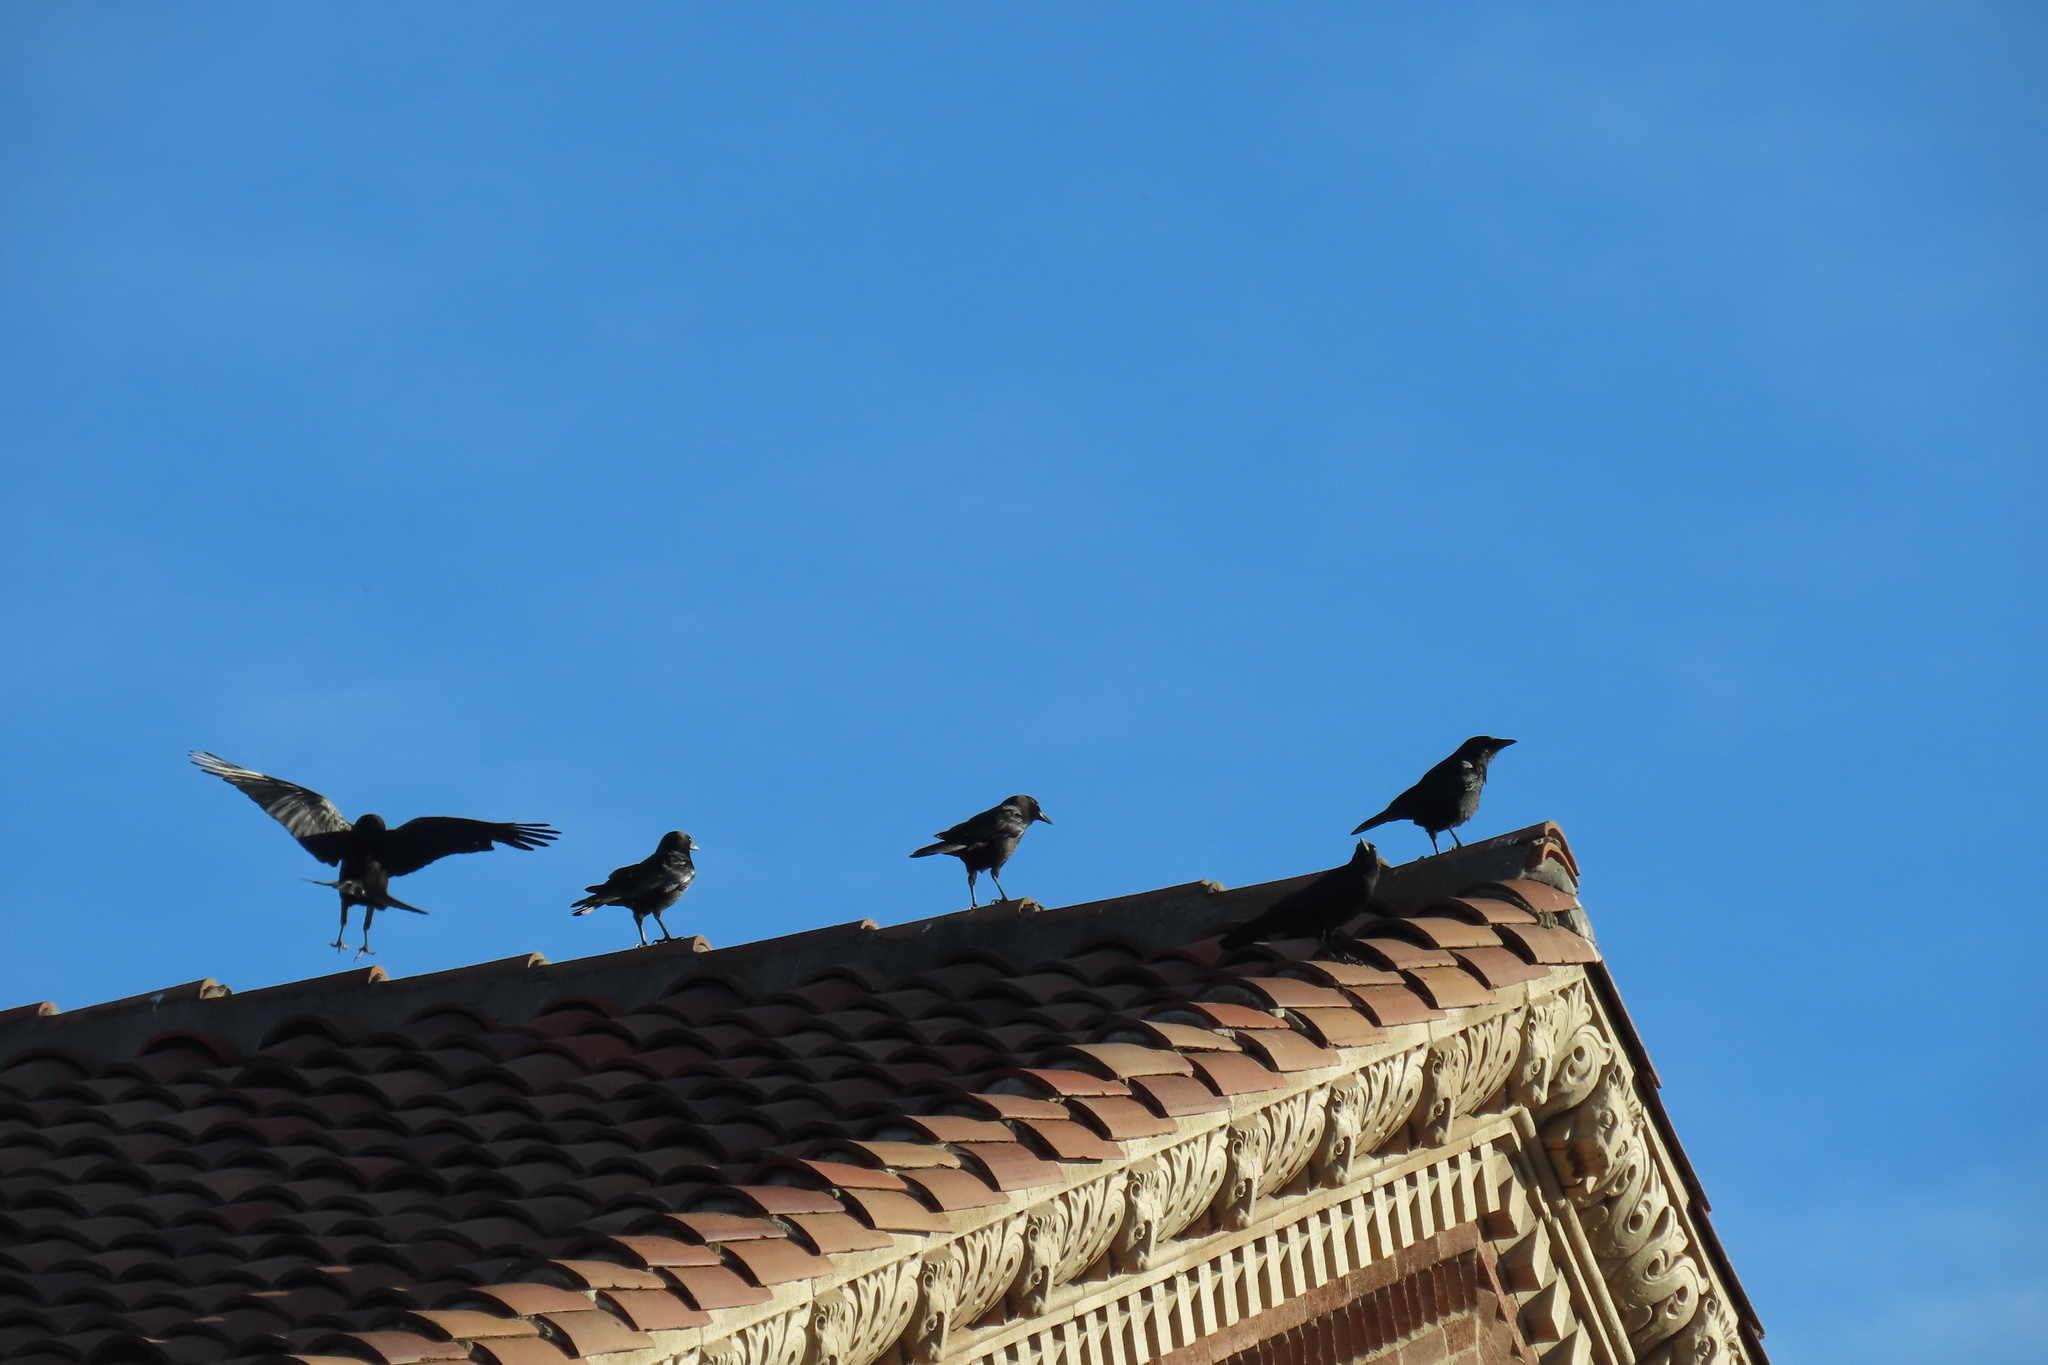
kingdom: Animalia
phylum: Chordata
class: Aves
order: Passeriformes
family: Corvidae
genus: Corvus
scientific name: Corvus brachyrhynchos
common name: American crow
